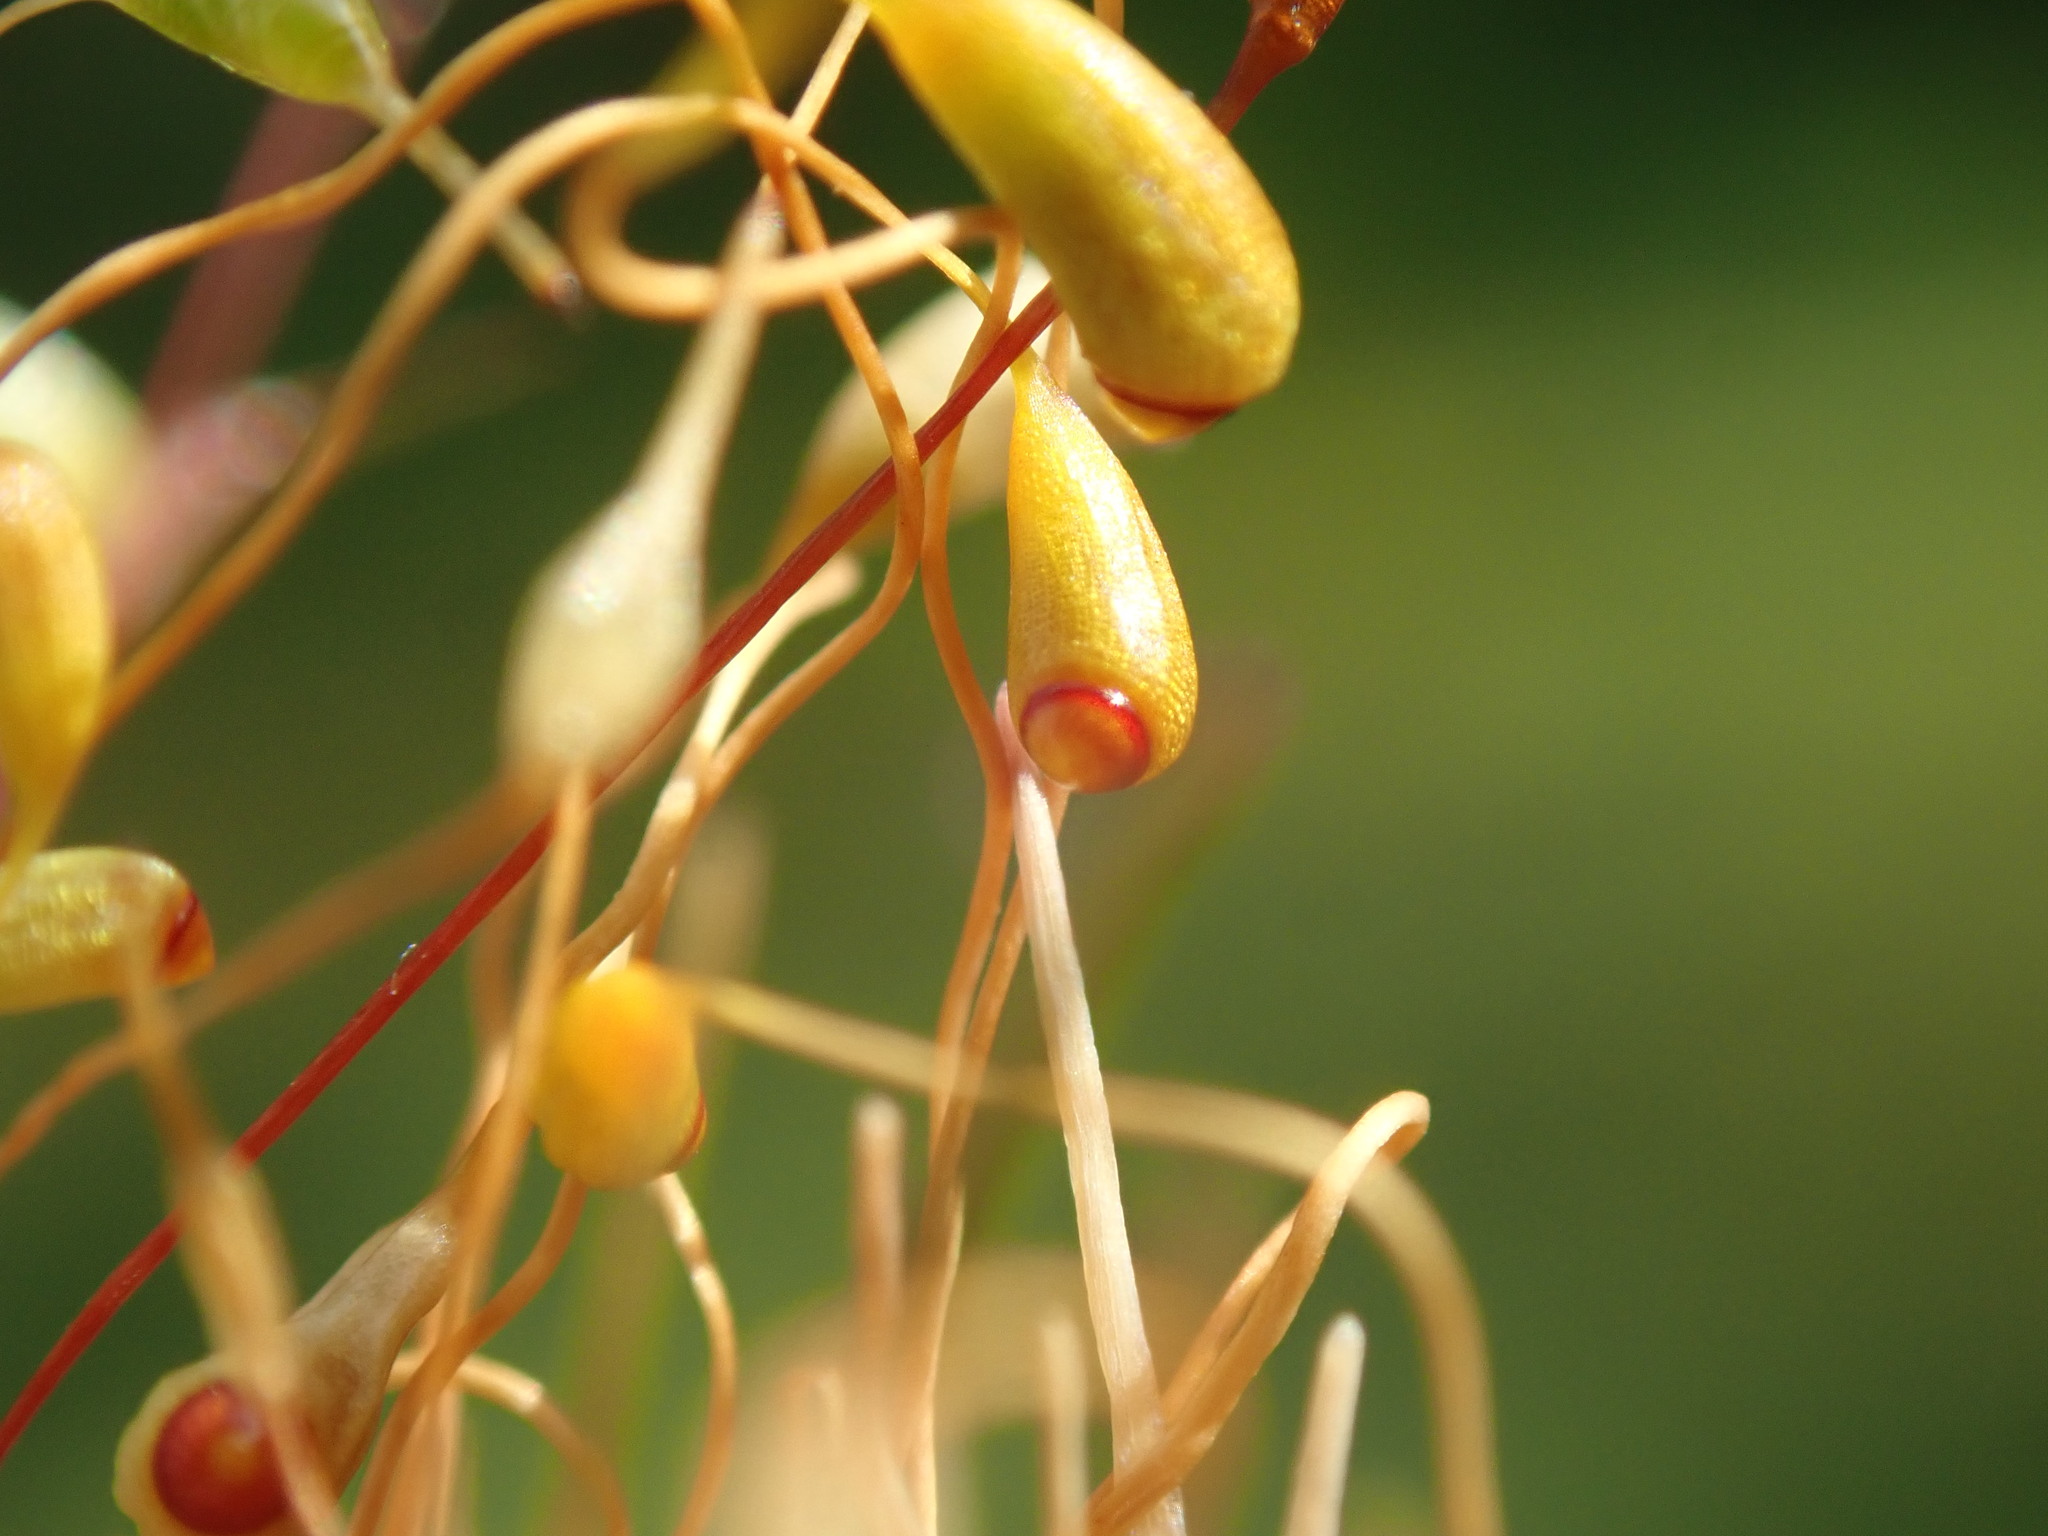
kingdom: Plantae
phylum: Bryophyta
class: Bryopsida
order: Funariales
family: Funariaceae
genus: Funaria
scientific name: Funaria hygrometrica
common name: Common cord moss
